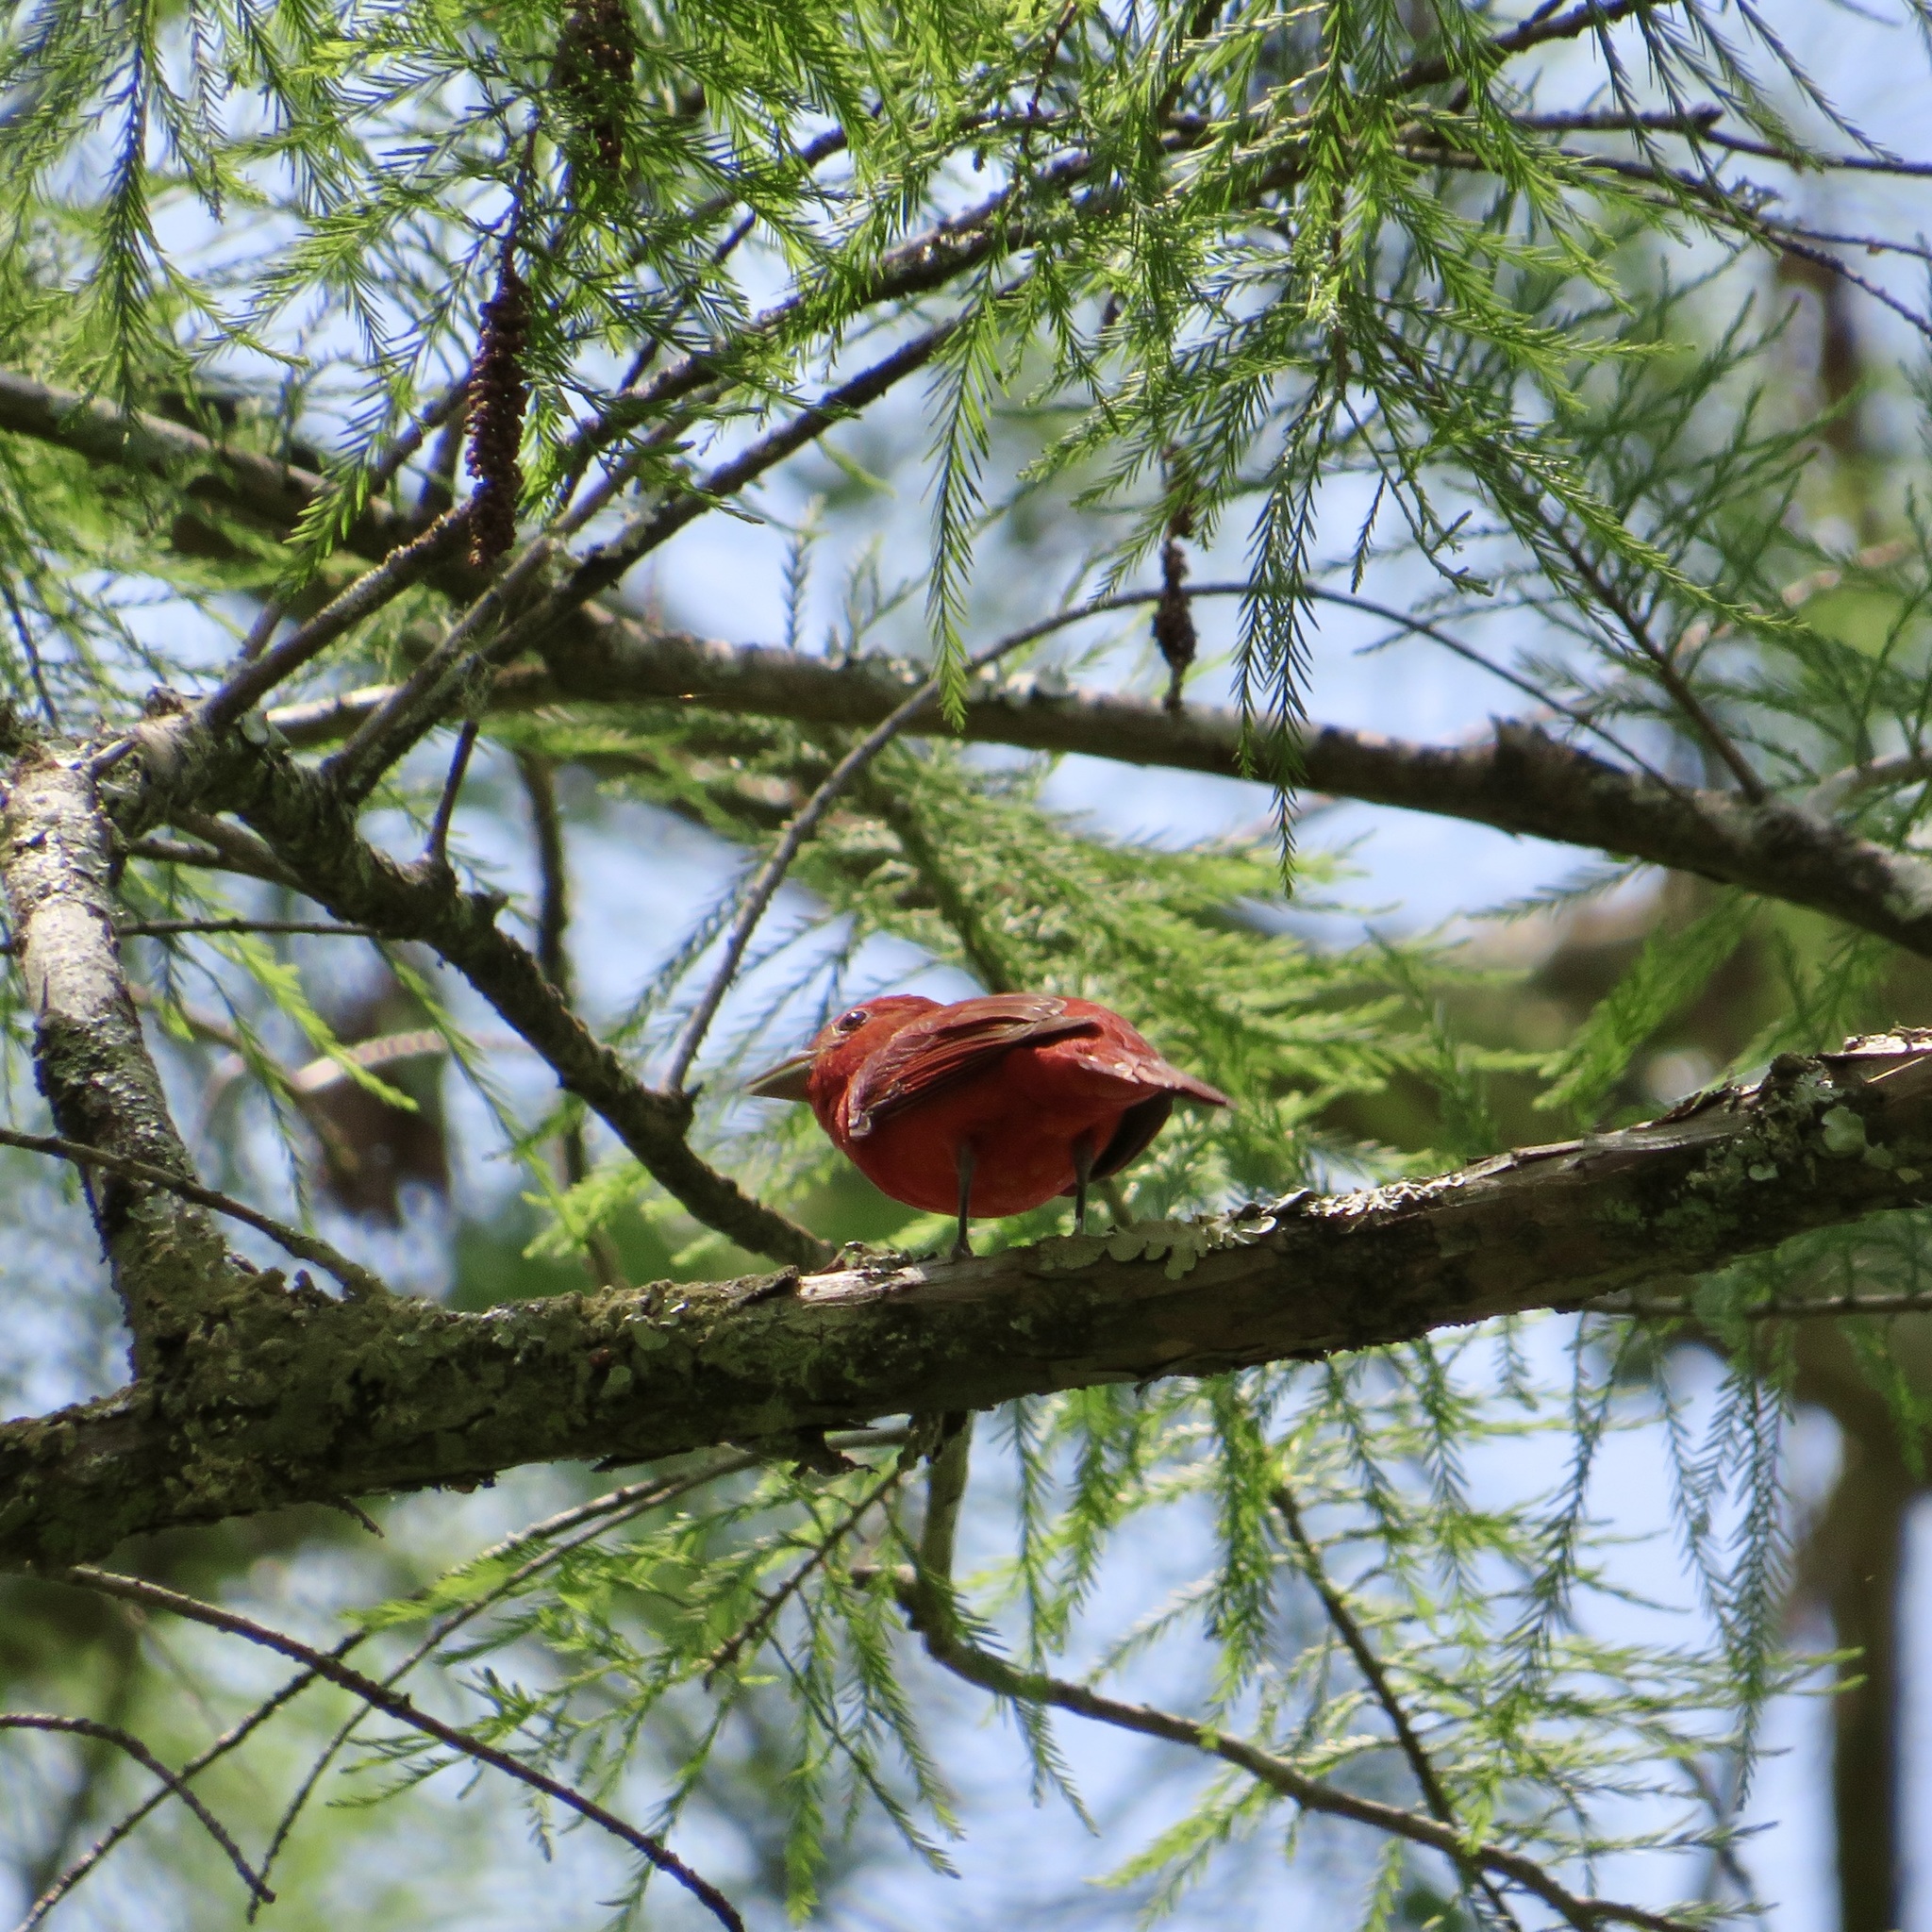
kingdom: Animalia
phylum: Chordata
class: Aves
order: Passeriformes
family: Cardinalidae
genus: Piranga
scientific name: Piranga rubra
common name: Summer tanager
